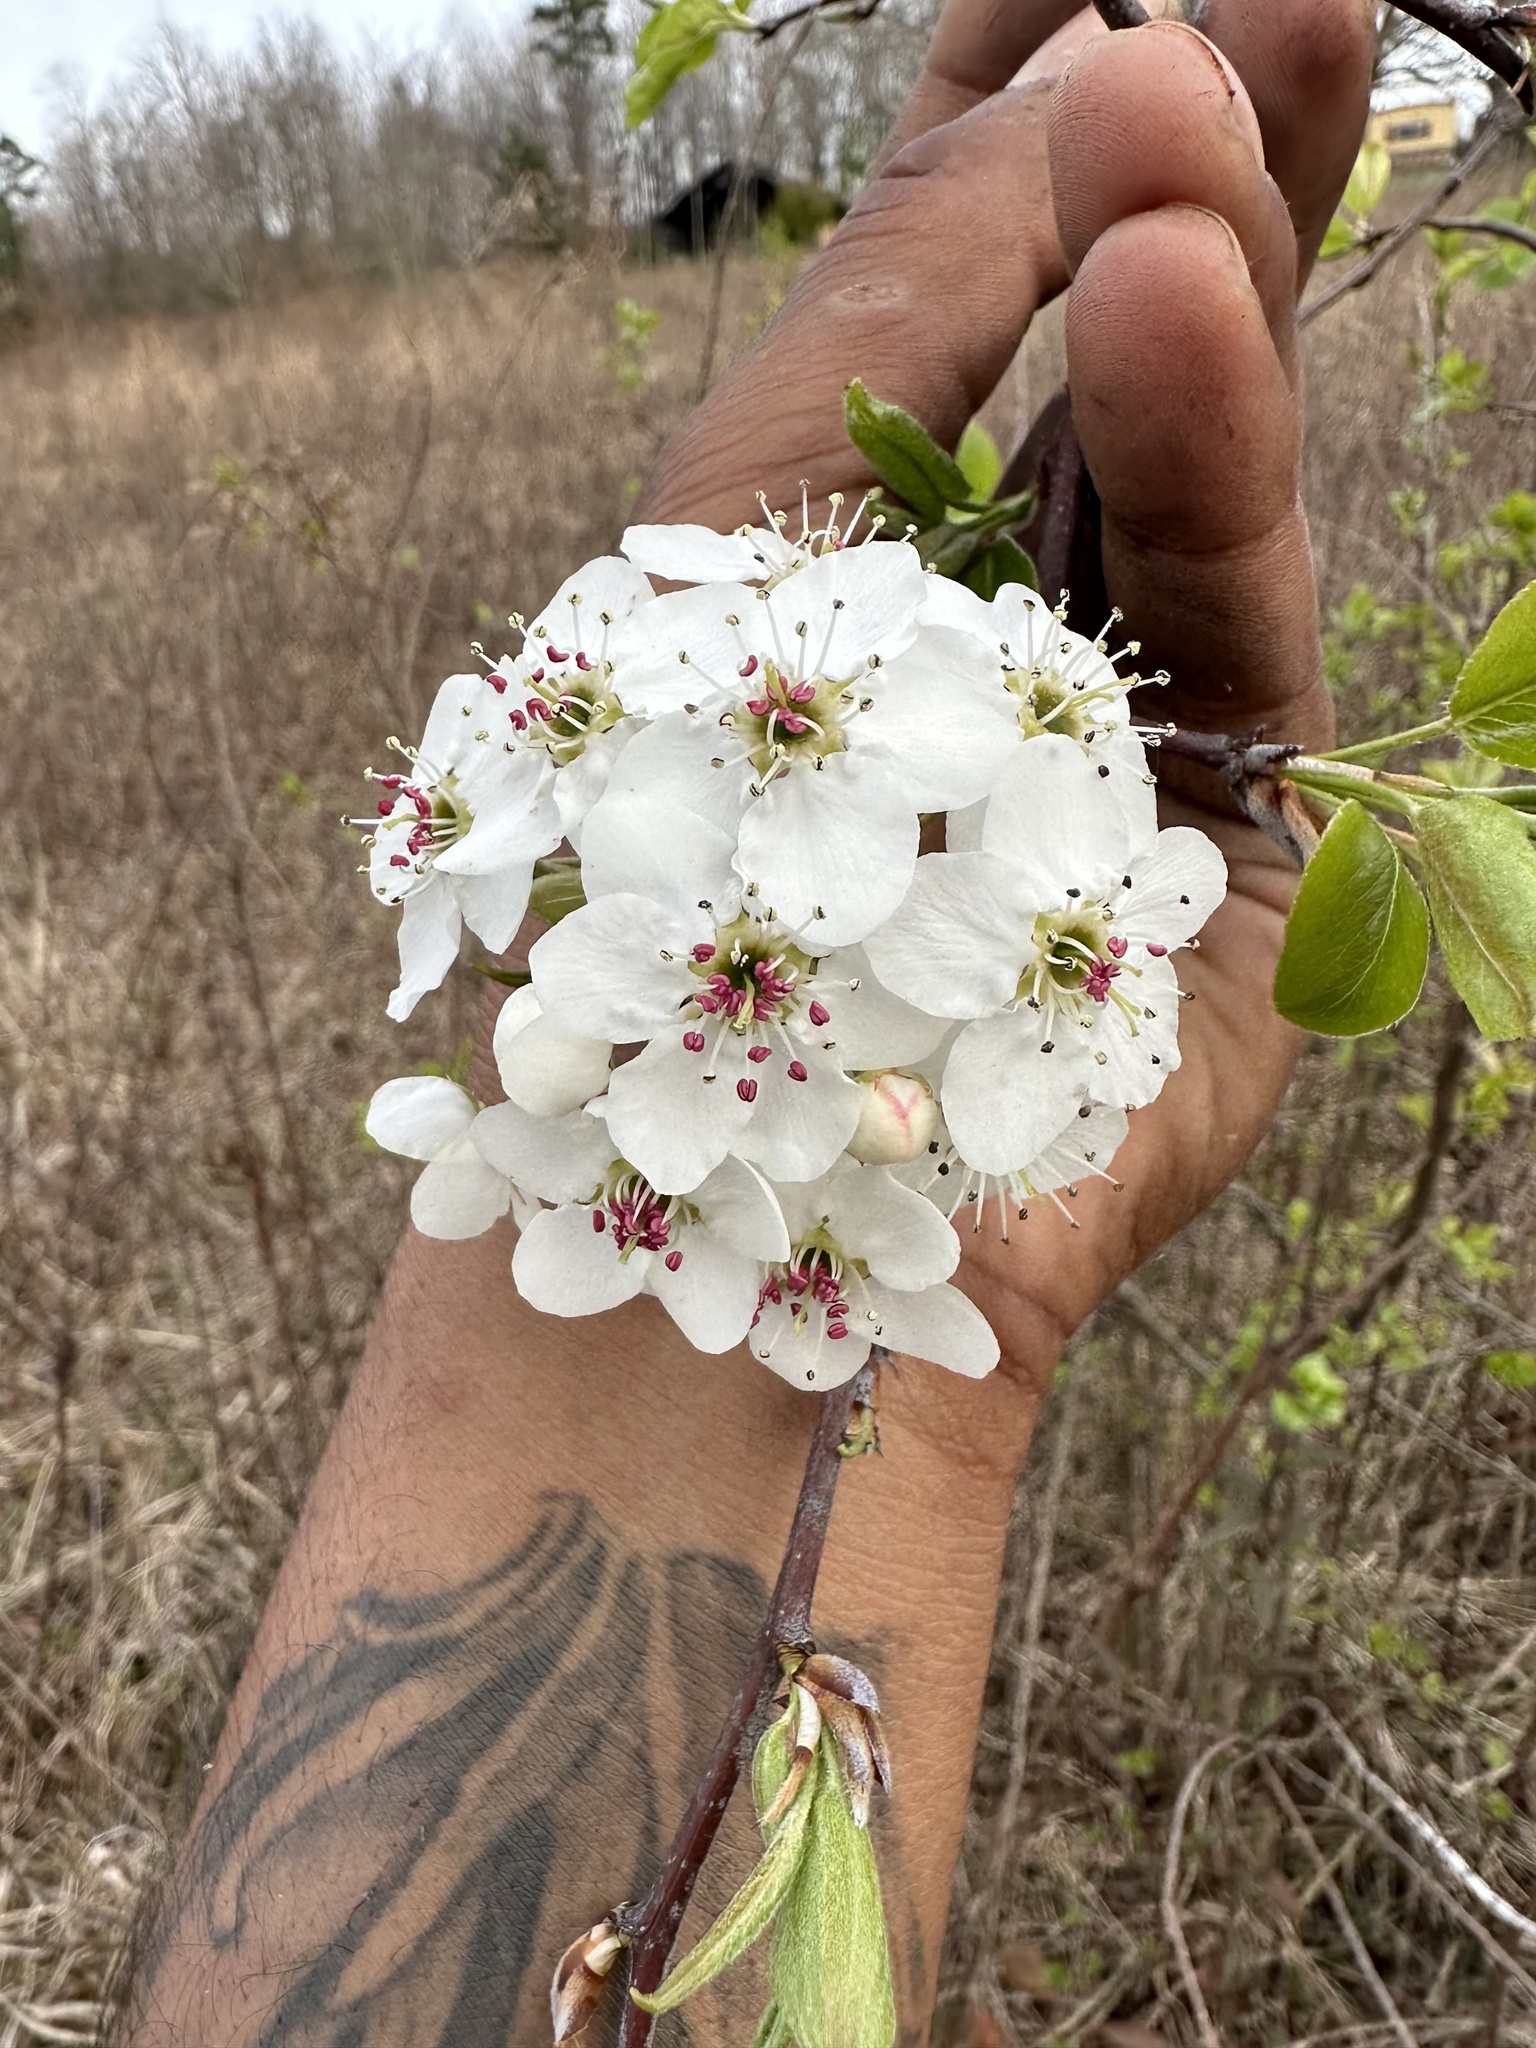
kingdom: Plantae
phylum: Tracheophyta
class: Magnoliopsida
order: Rosales
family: Rosaceae
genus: Pyrus
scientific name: Pyrus calleryana
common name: Callery pear
